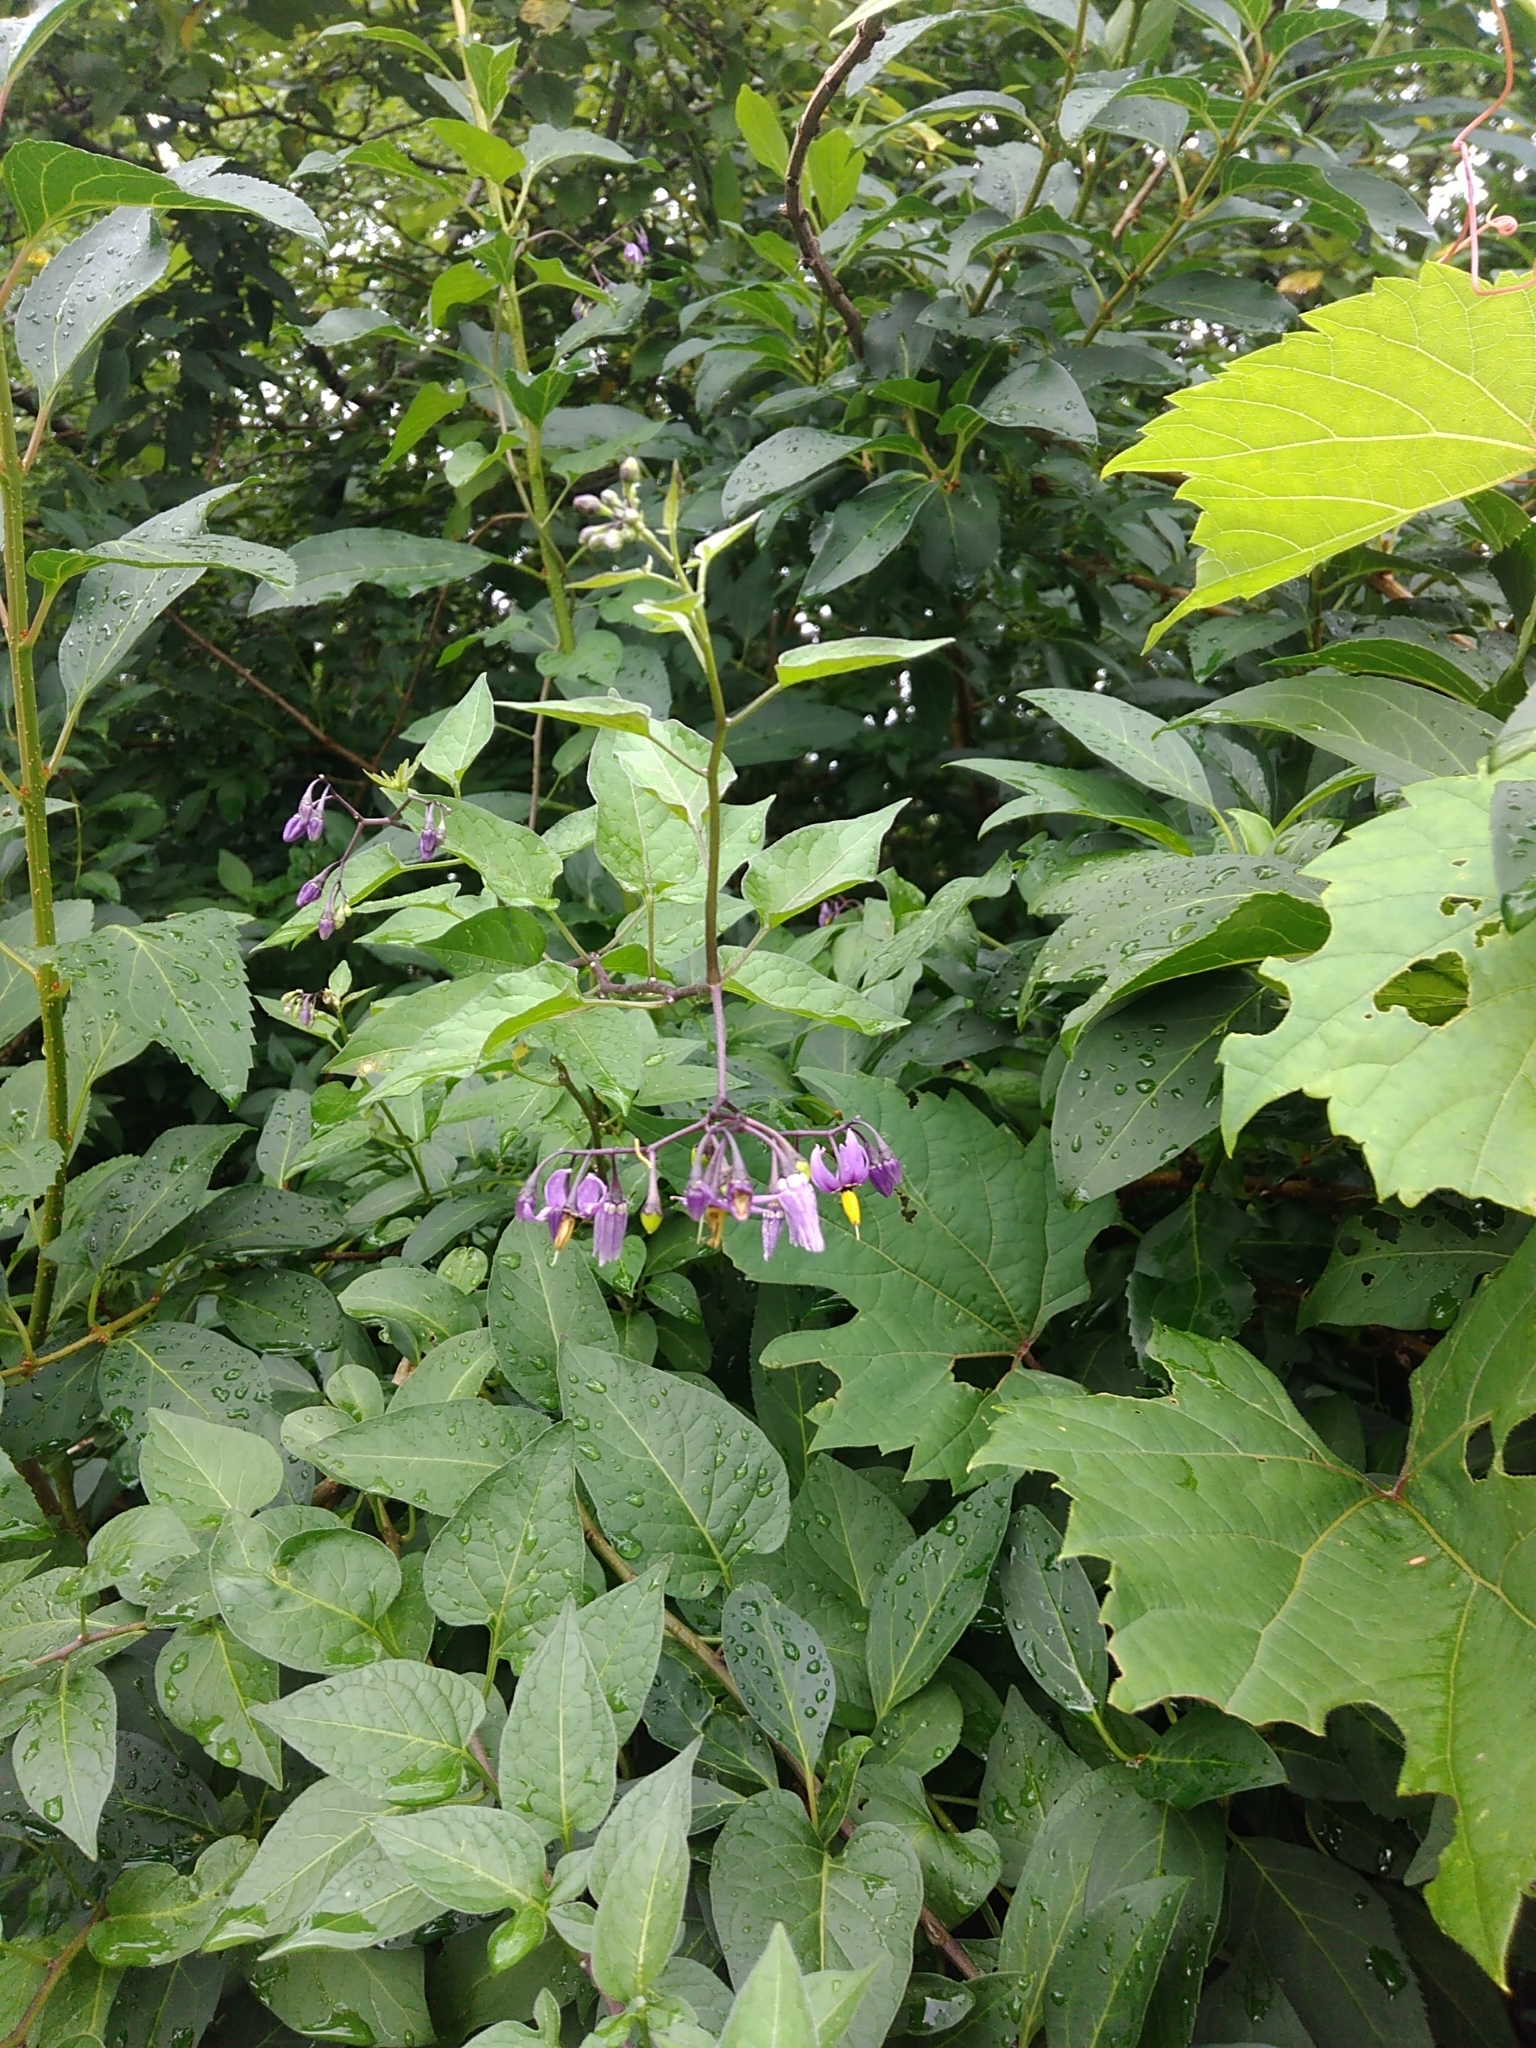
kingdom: Plantae
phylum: Tracheophyta
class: Magnoliopsida
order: Solanales
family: Solanaceae
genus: Solanum
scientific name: Solanum dulcamara
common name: Climbing nightshade
